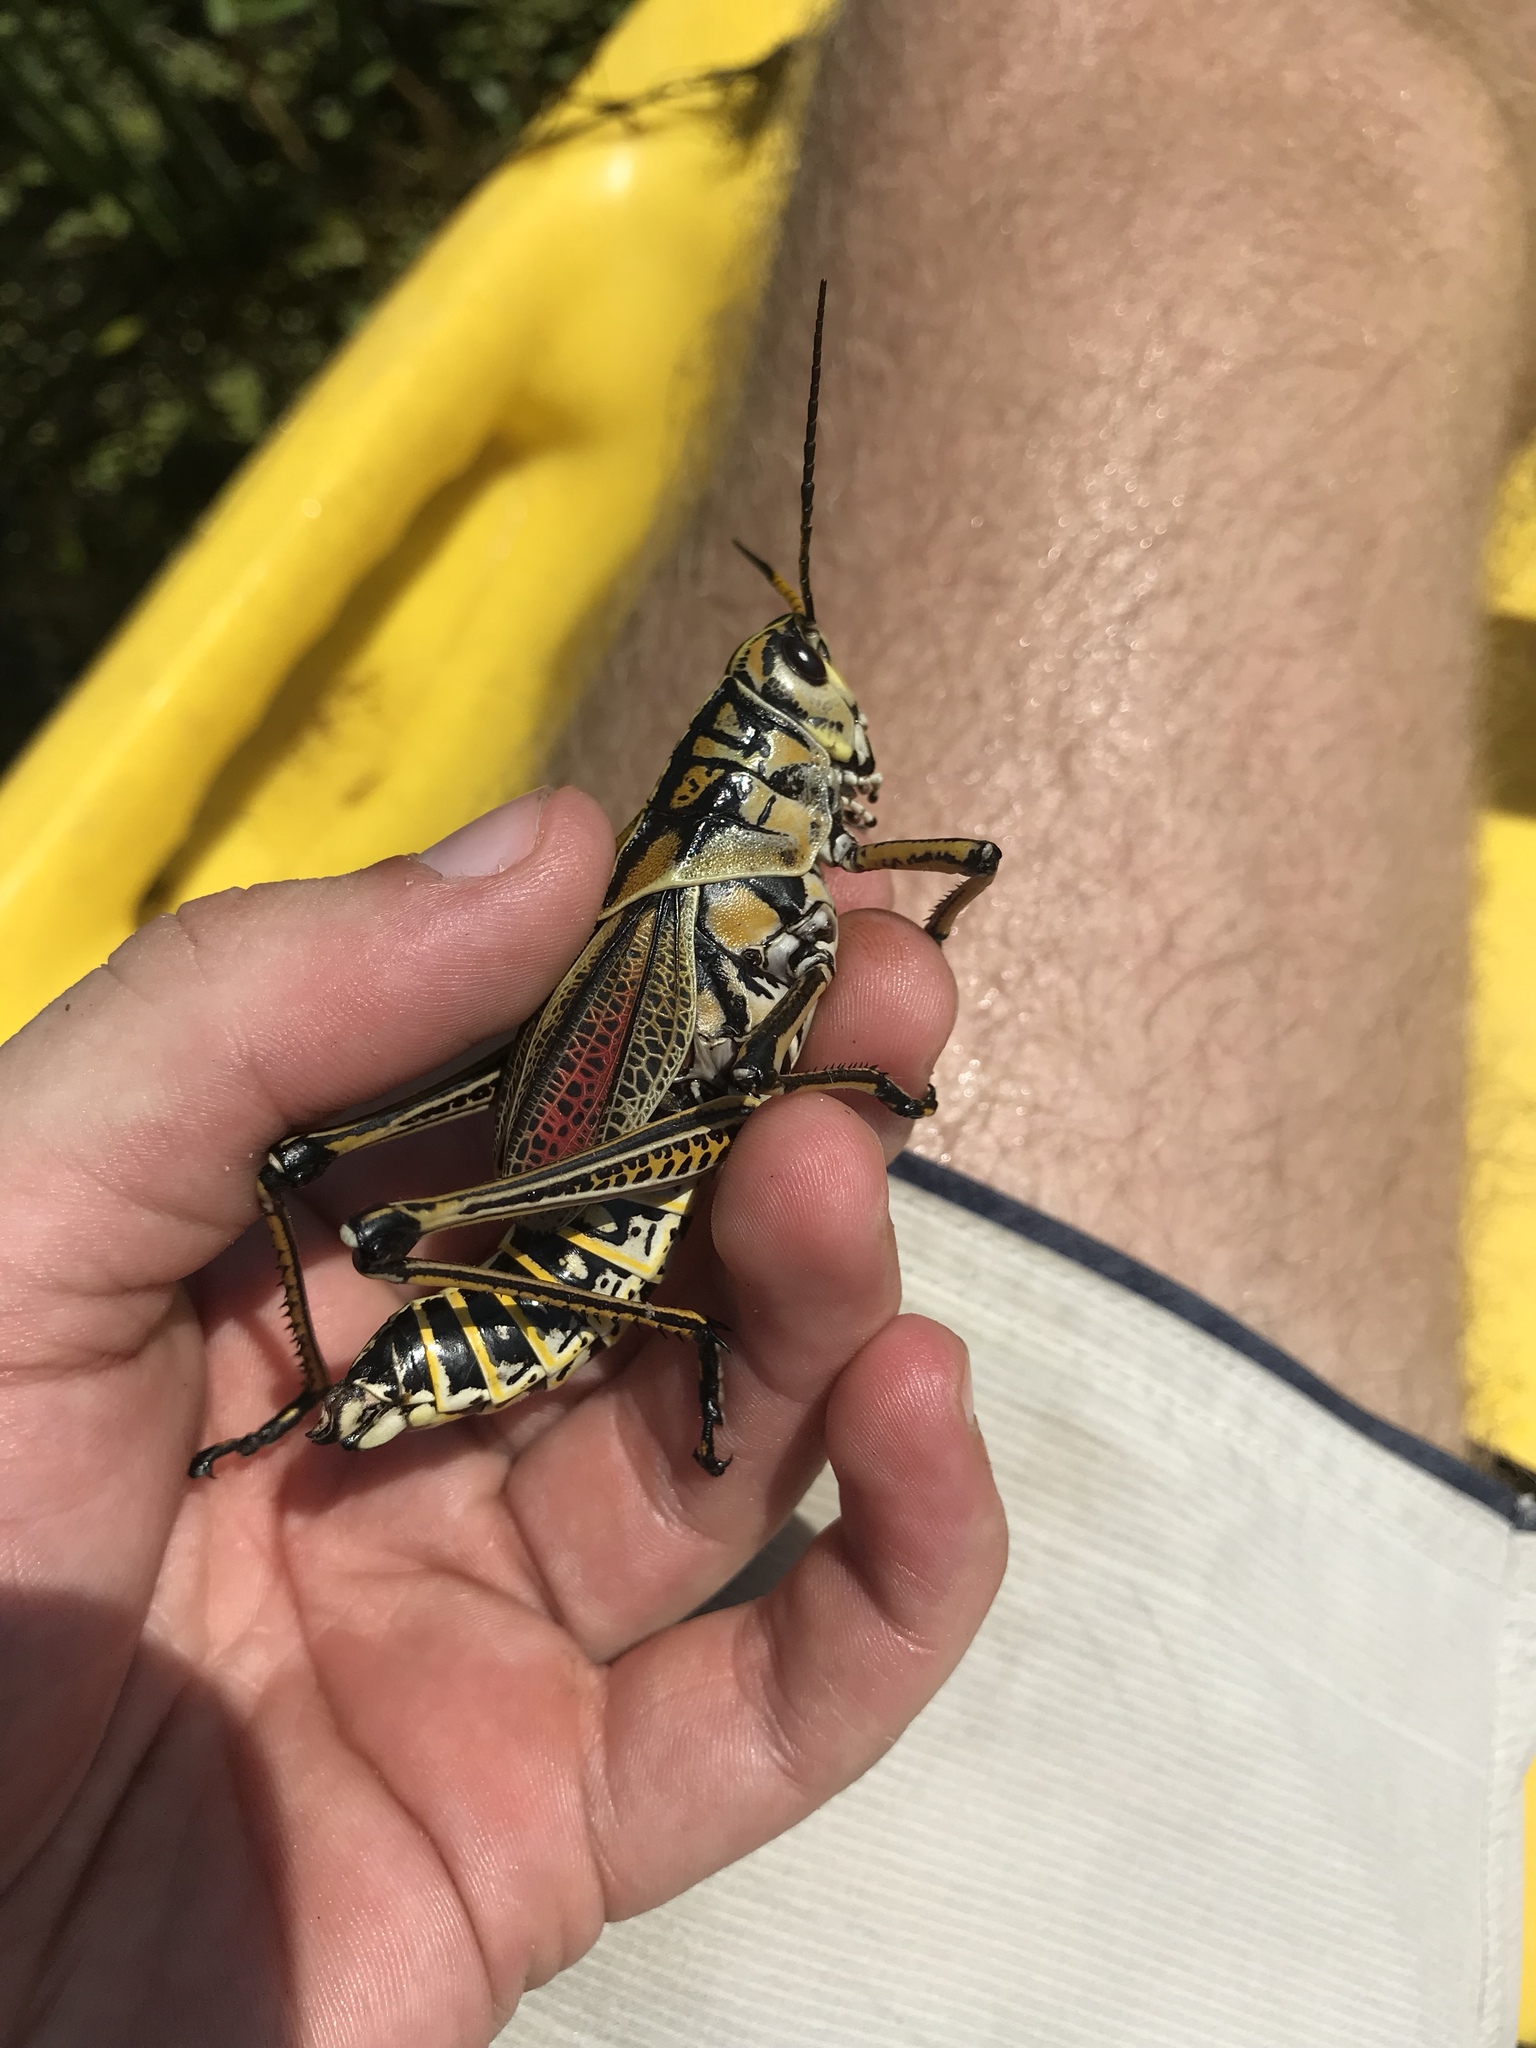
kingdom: Animalia
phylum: Arthropoda
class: Insecta
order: Orthoptera
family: Romaleidae
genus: Romalea
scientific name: Romalea microptera
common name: Eastern lubber grasshopper
